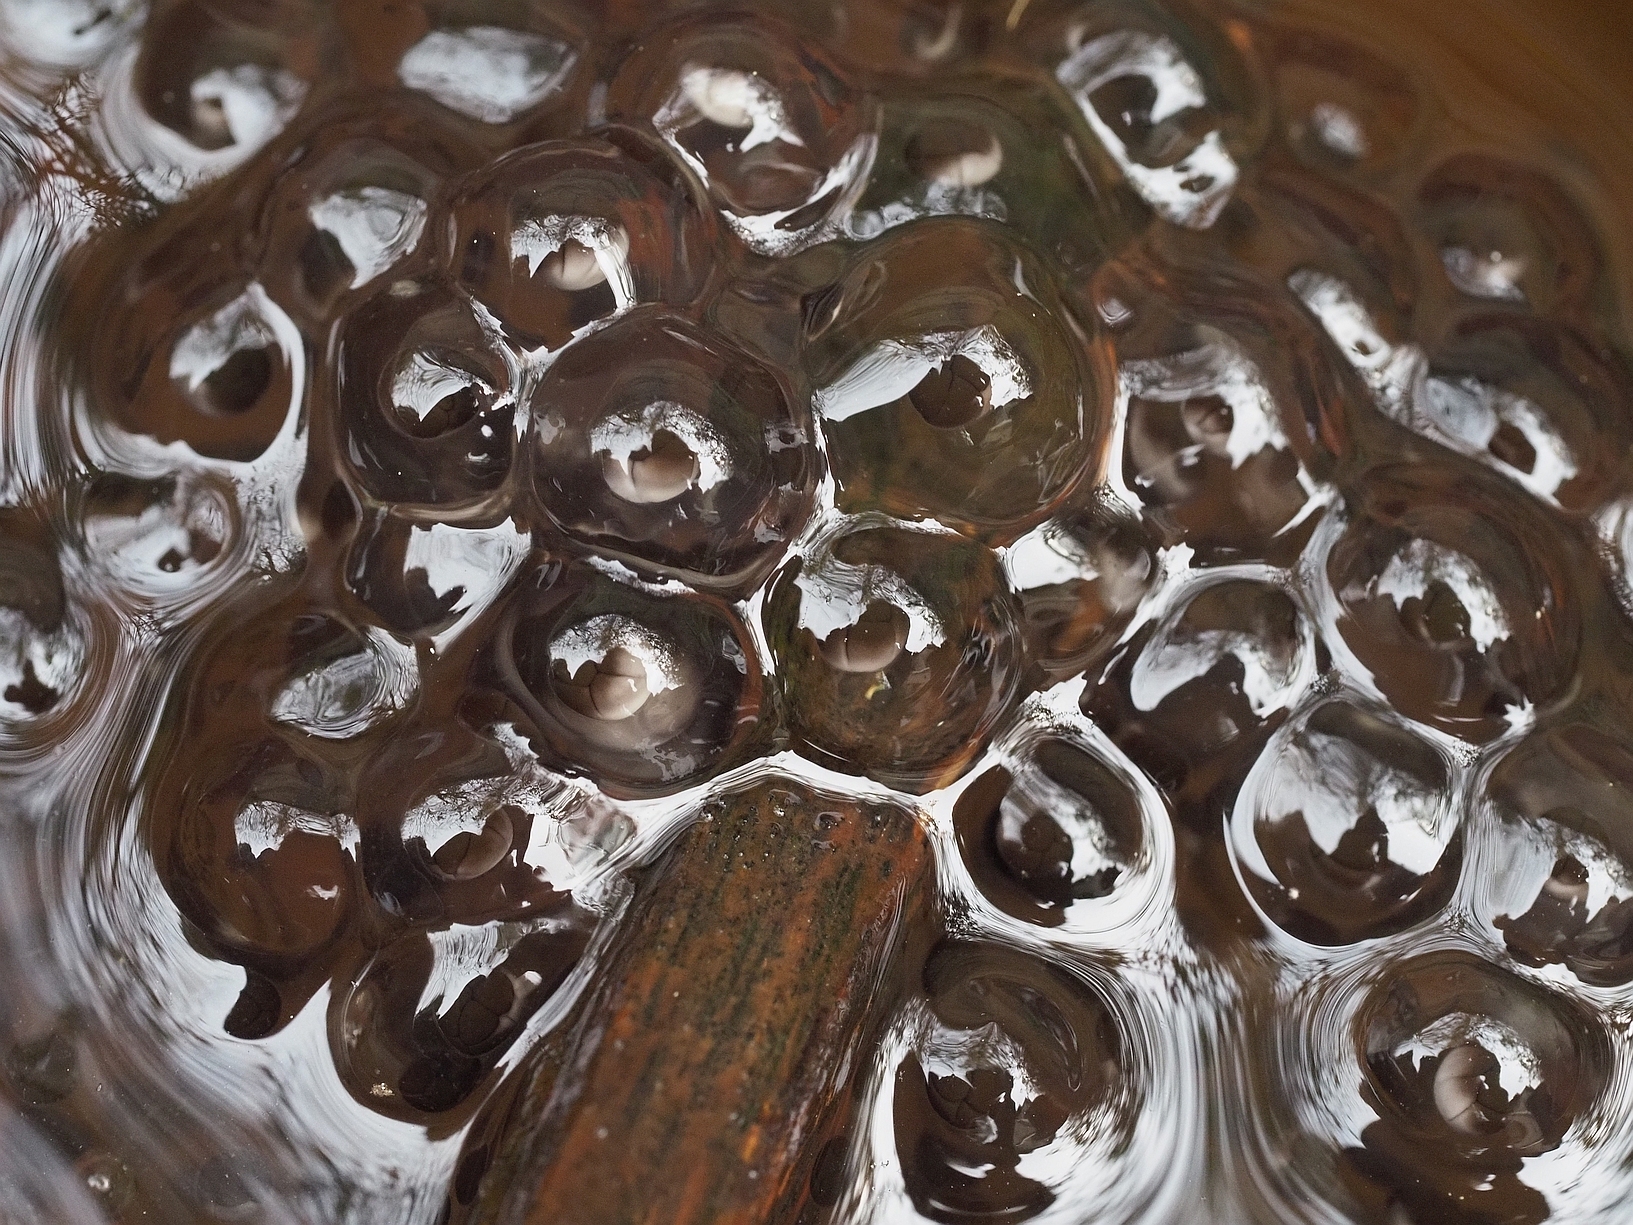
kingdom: Animalia
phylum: Chordata
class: Amphibia
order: Anura
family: Ranidae
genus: Rana
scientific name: Rana latastei
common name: Italian agile frog
